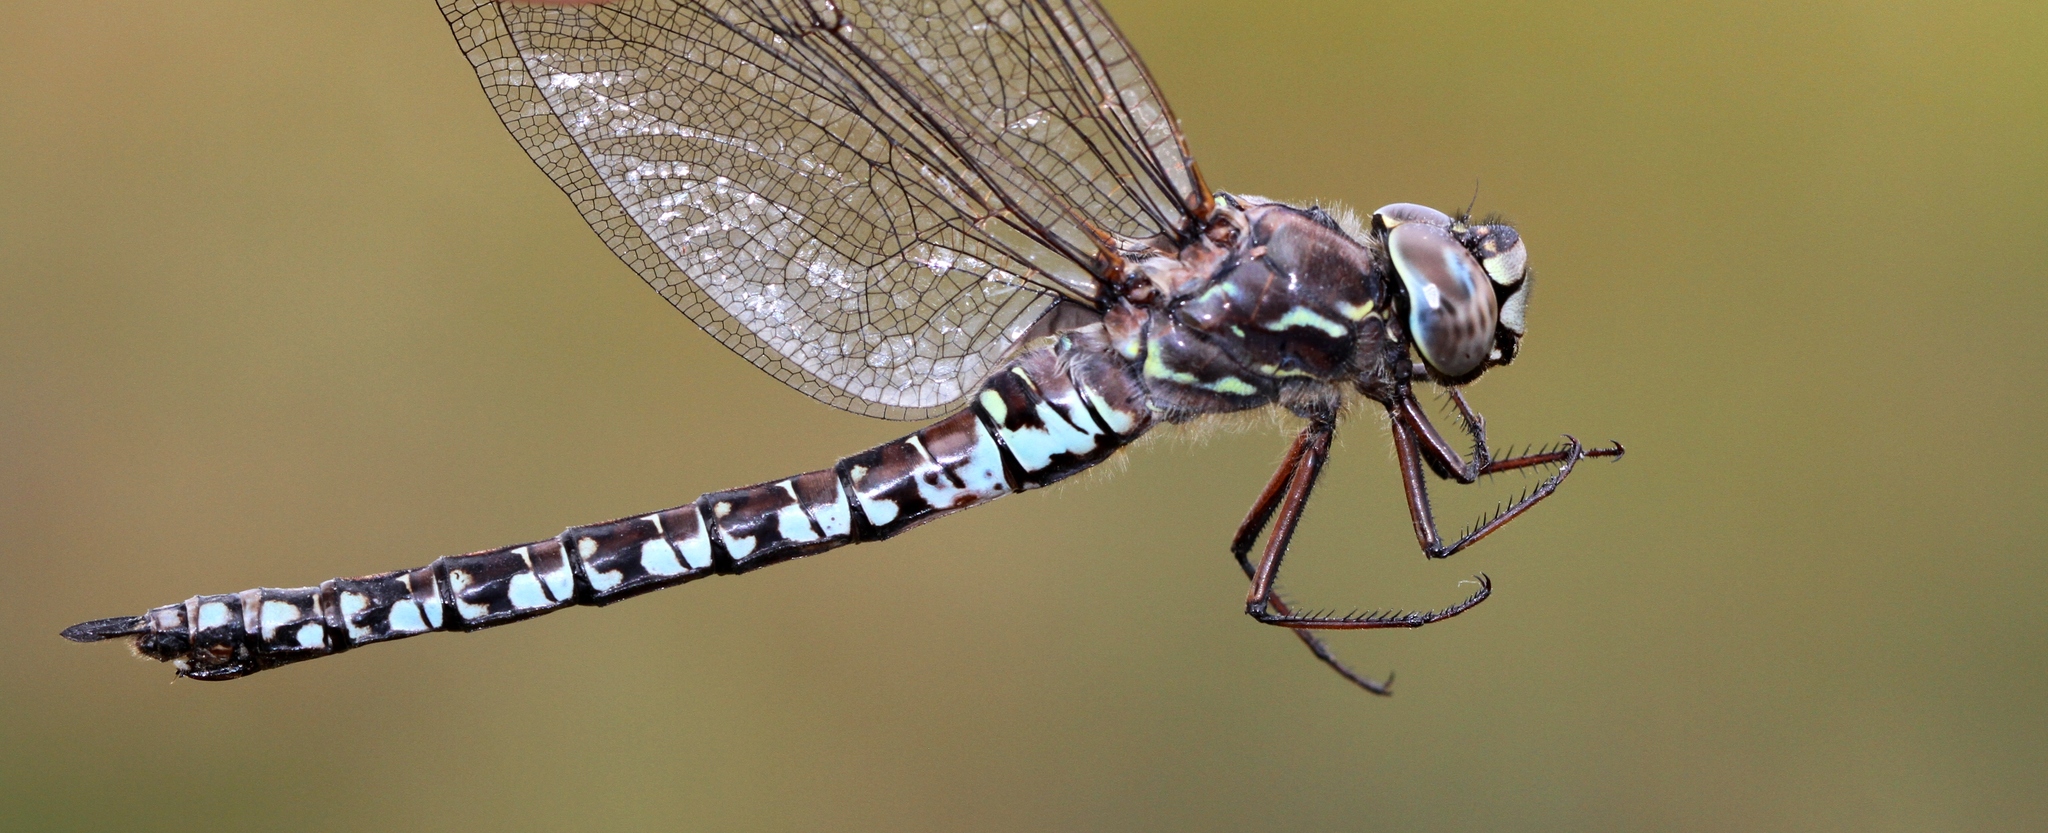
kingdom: Animalia
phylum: Arthropoda
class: Insecta
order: Odonata
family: Aeshnidae
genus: Aeshna
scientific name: Aeshna sitchensis
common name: Zigzag darner
